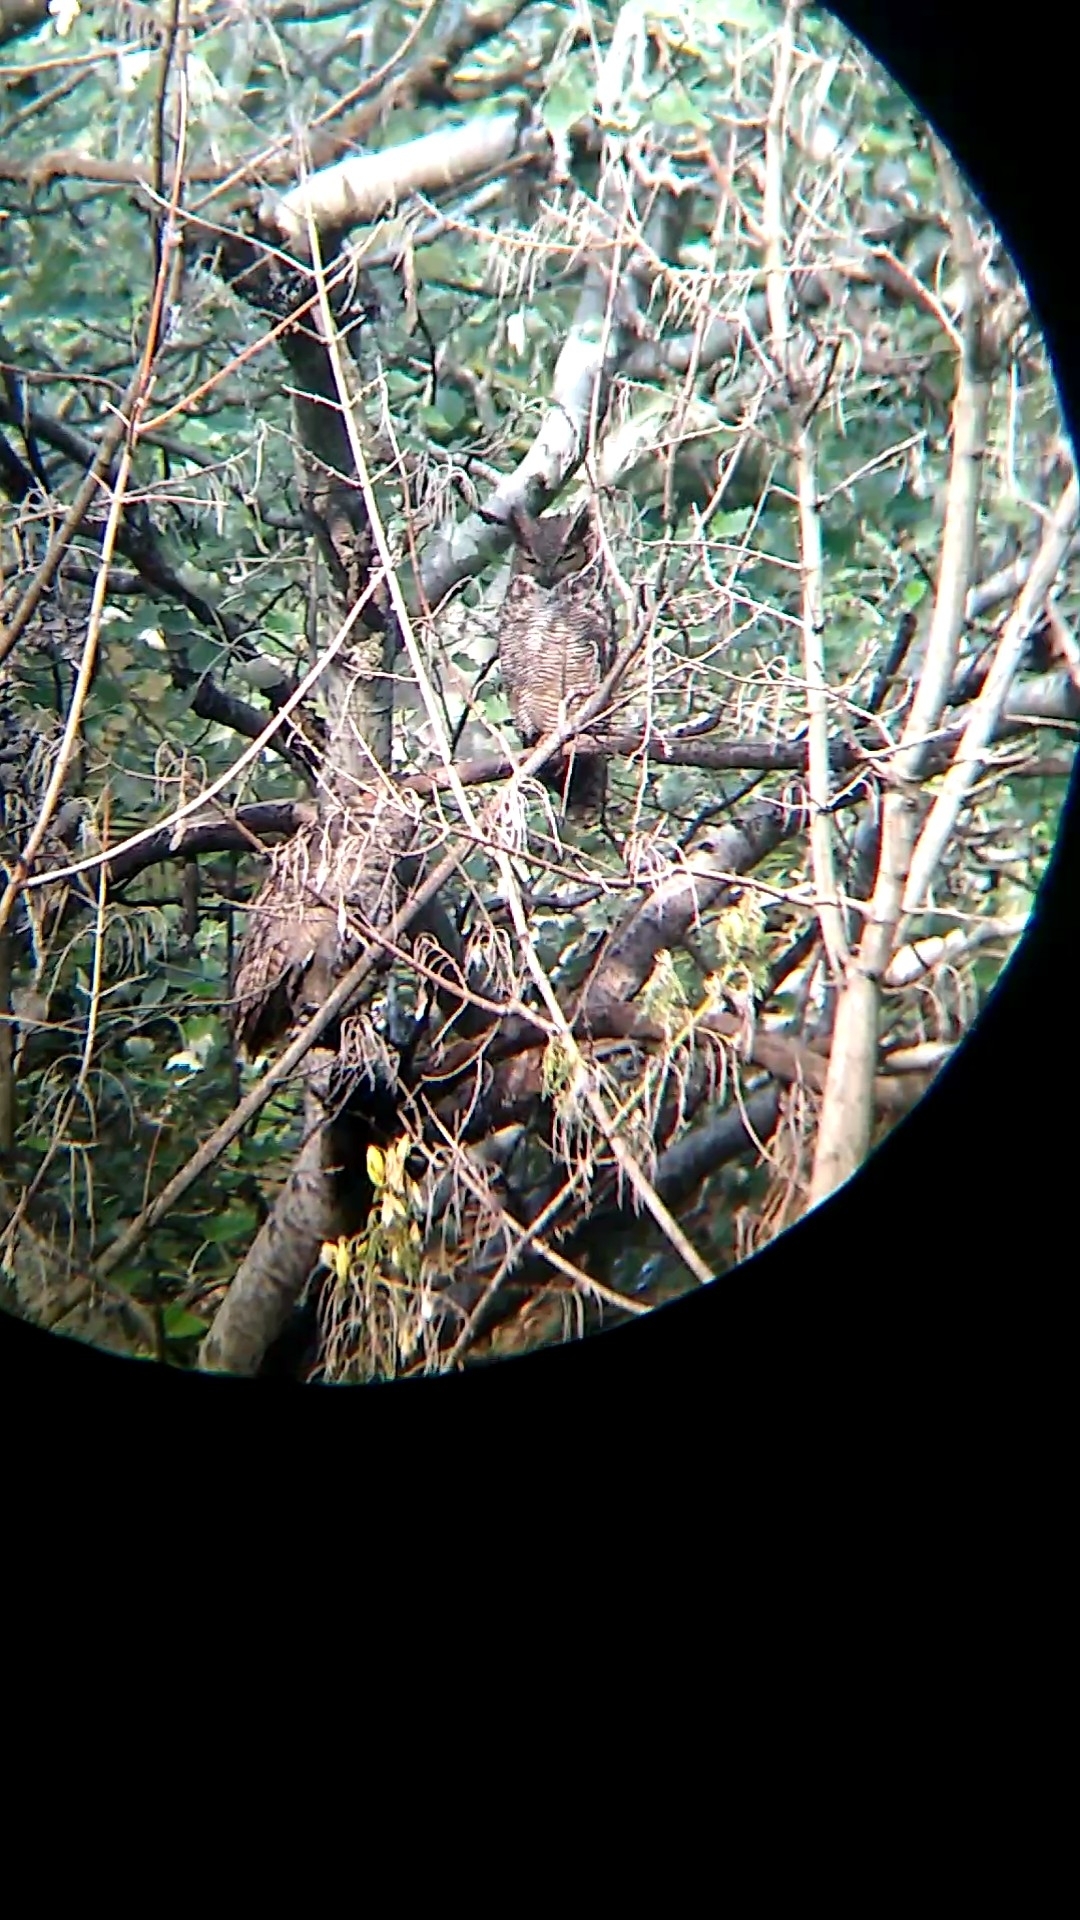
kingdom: Animalia
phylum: Chordata
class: Aves
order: Strigiformes
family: Strigidae
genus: Bubo
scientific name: Bubo virginianus
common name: Great horned owl
